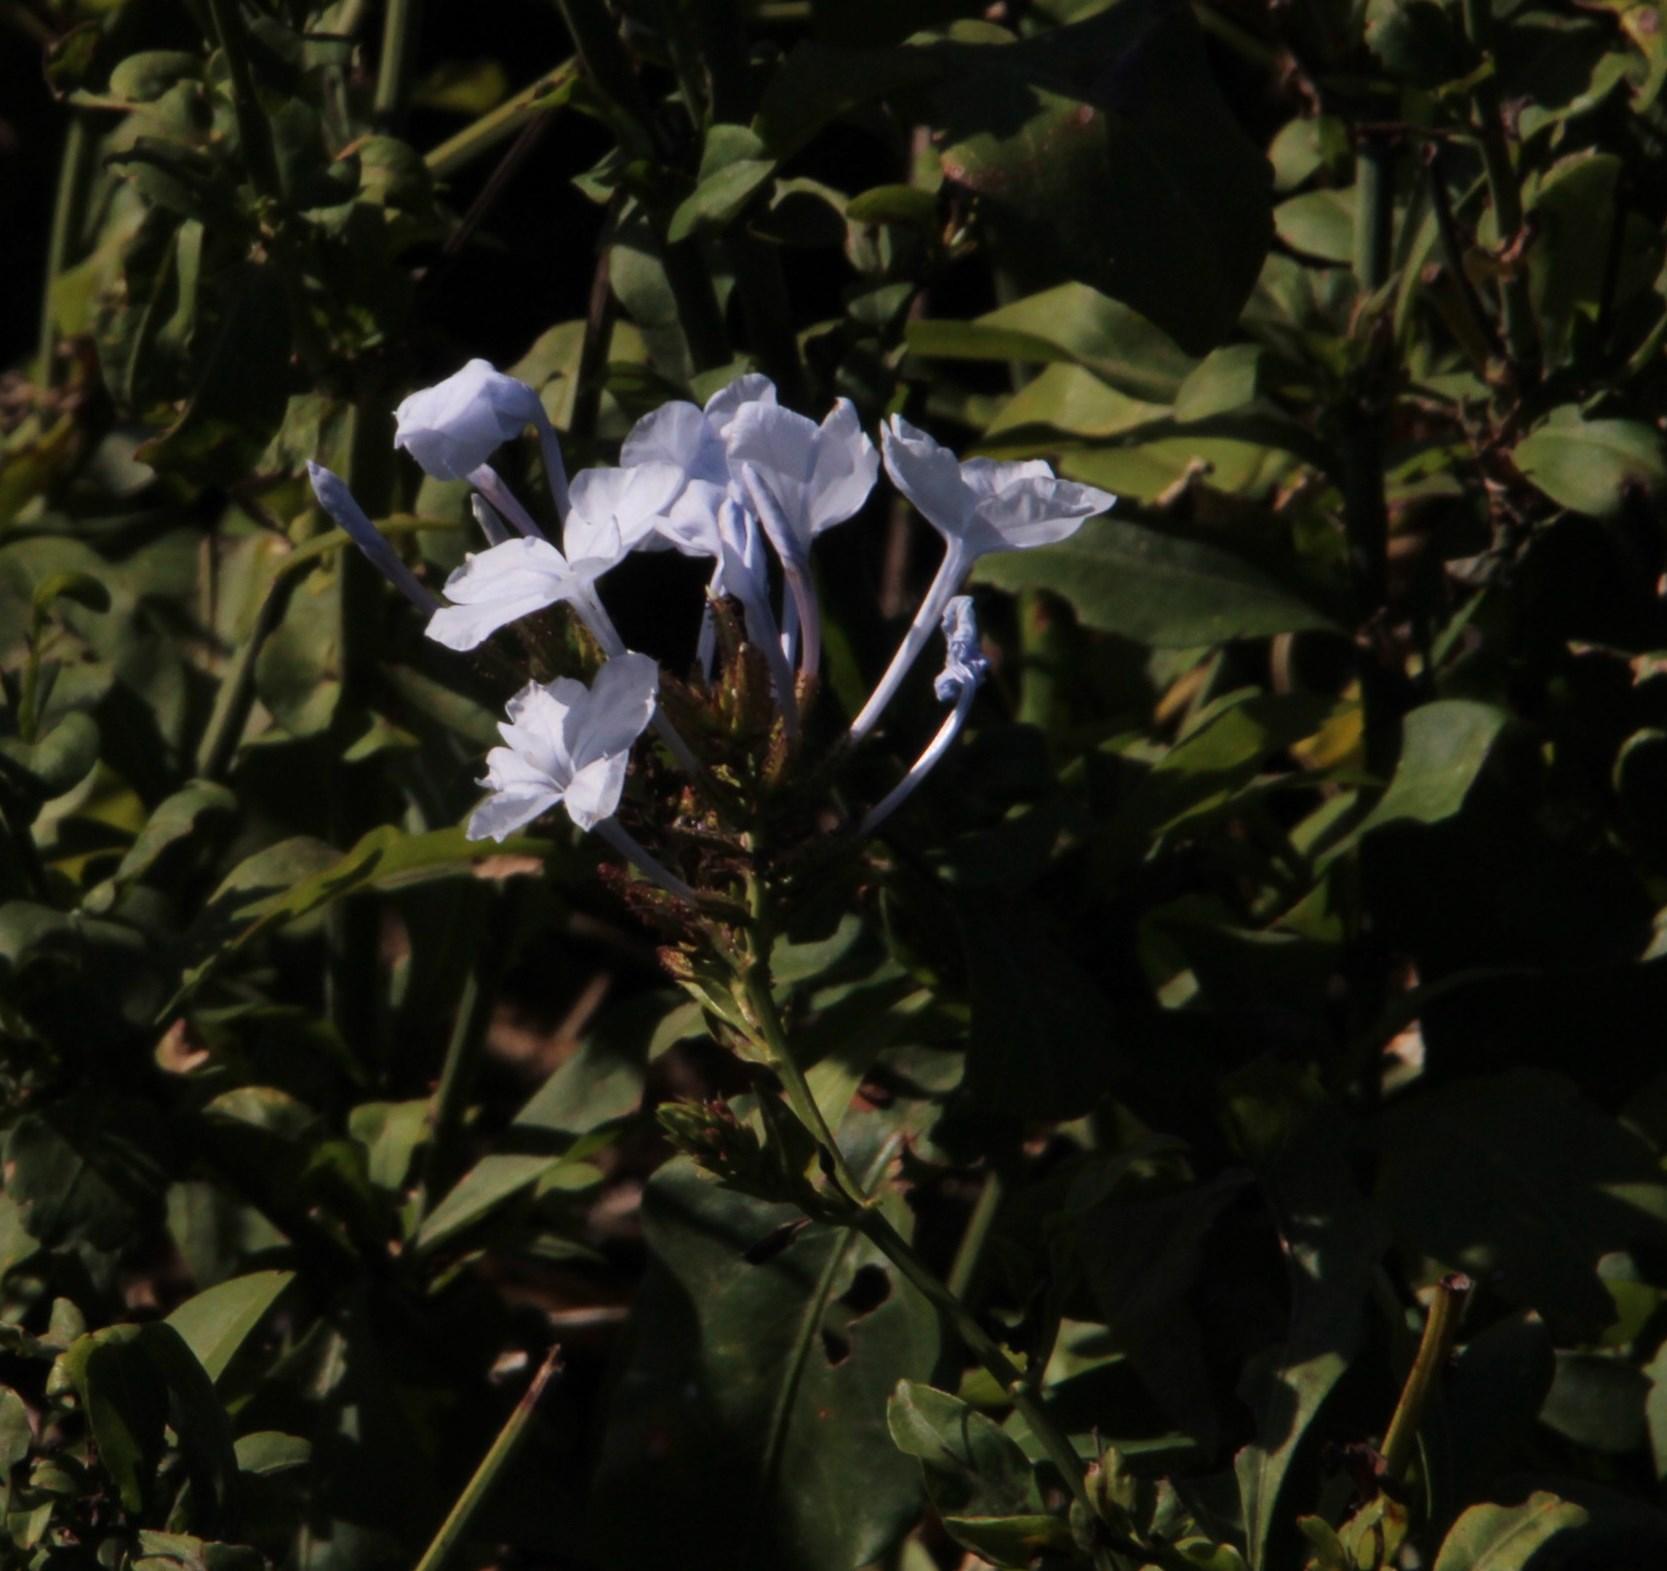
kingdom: Plantae
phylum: Tracheophyta
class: Magnoliopsida
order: Caryophyllales
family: Plumbaginaceae
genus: Plumbago
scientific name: Plumbago auriculata
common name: Cape leadwort
